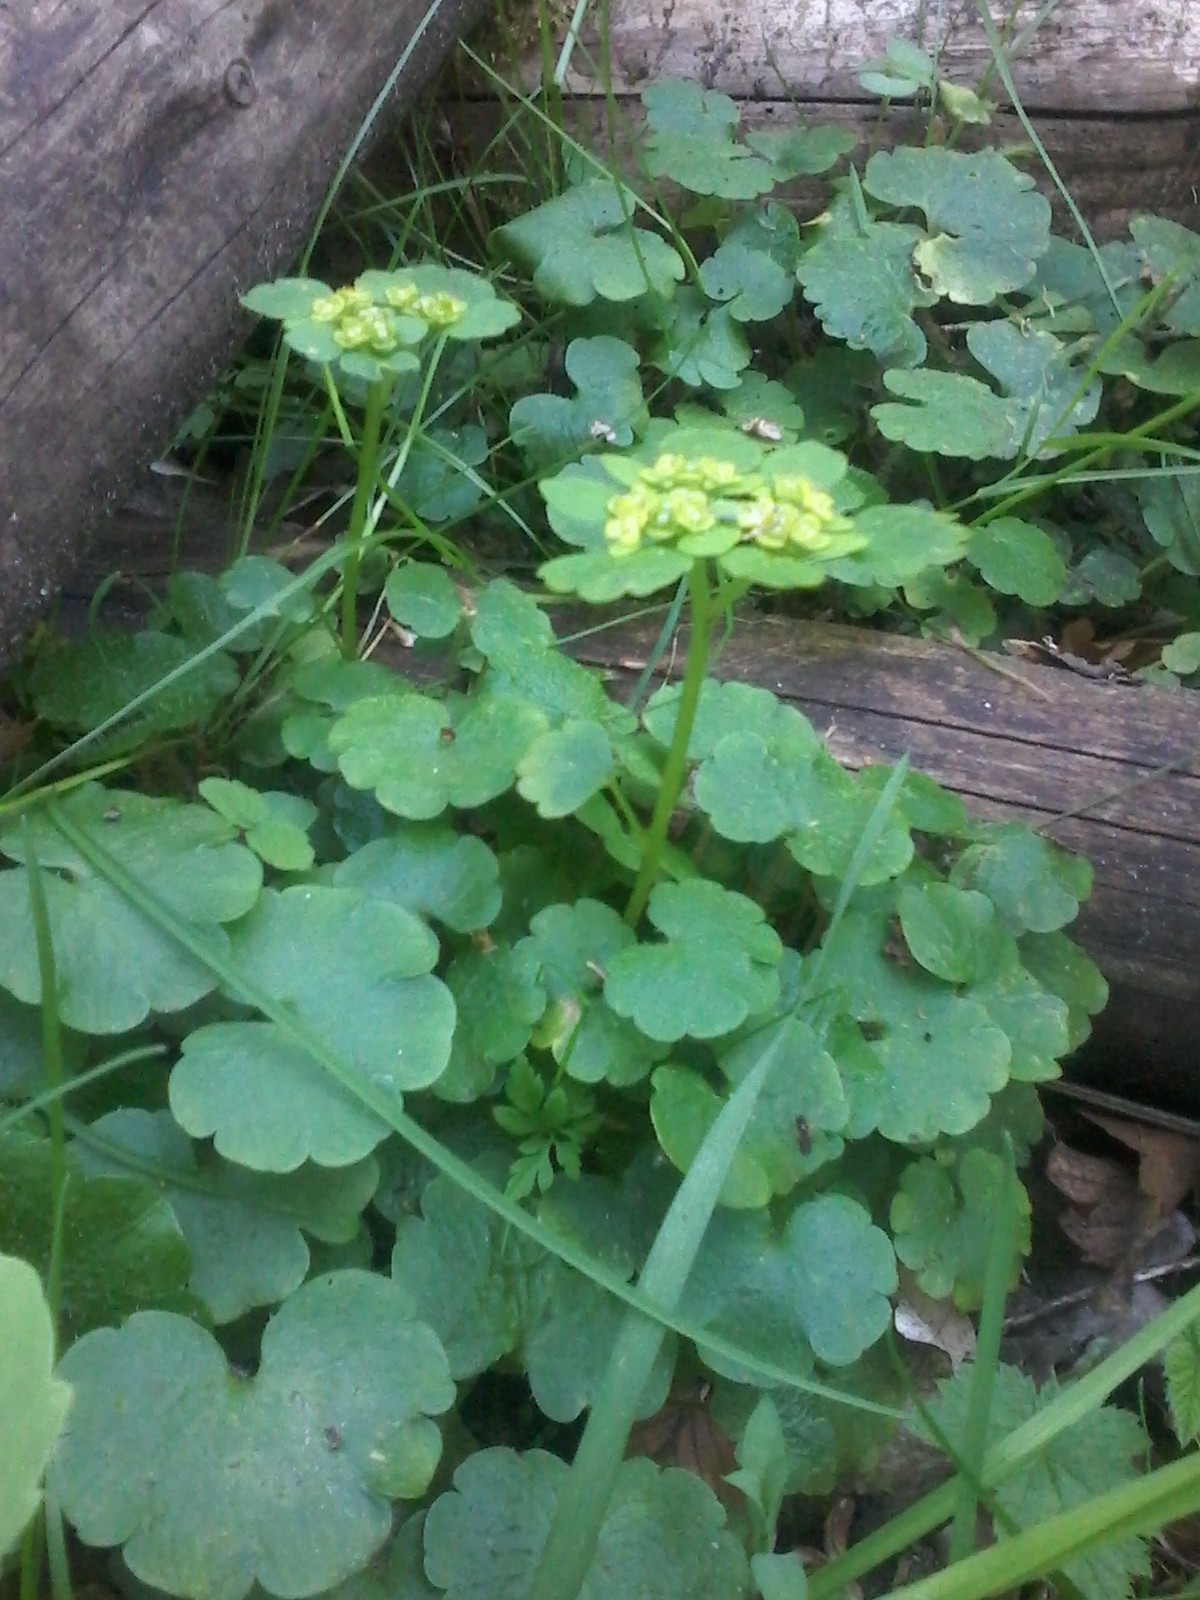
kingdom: Plantae
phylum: Tracheophyta
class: Magnoliopsida
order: Saxifragales
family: Saxifragaceae
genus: Chrysosplenium
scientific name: Chrysosplenium alternifolium
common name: Alternate-leaved golden-saxifrage
